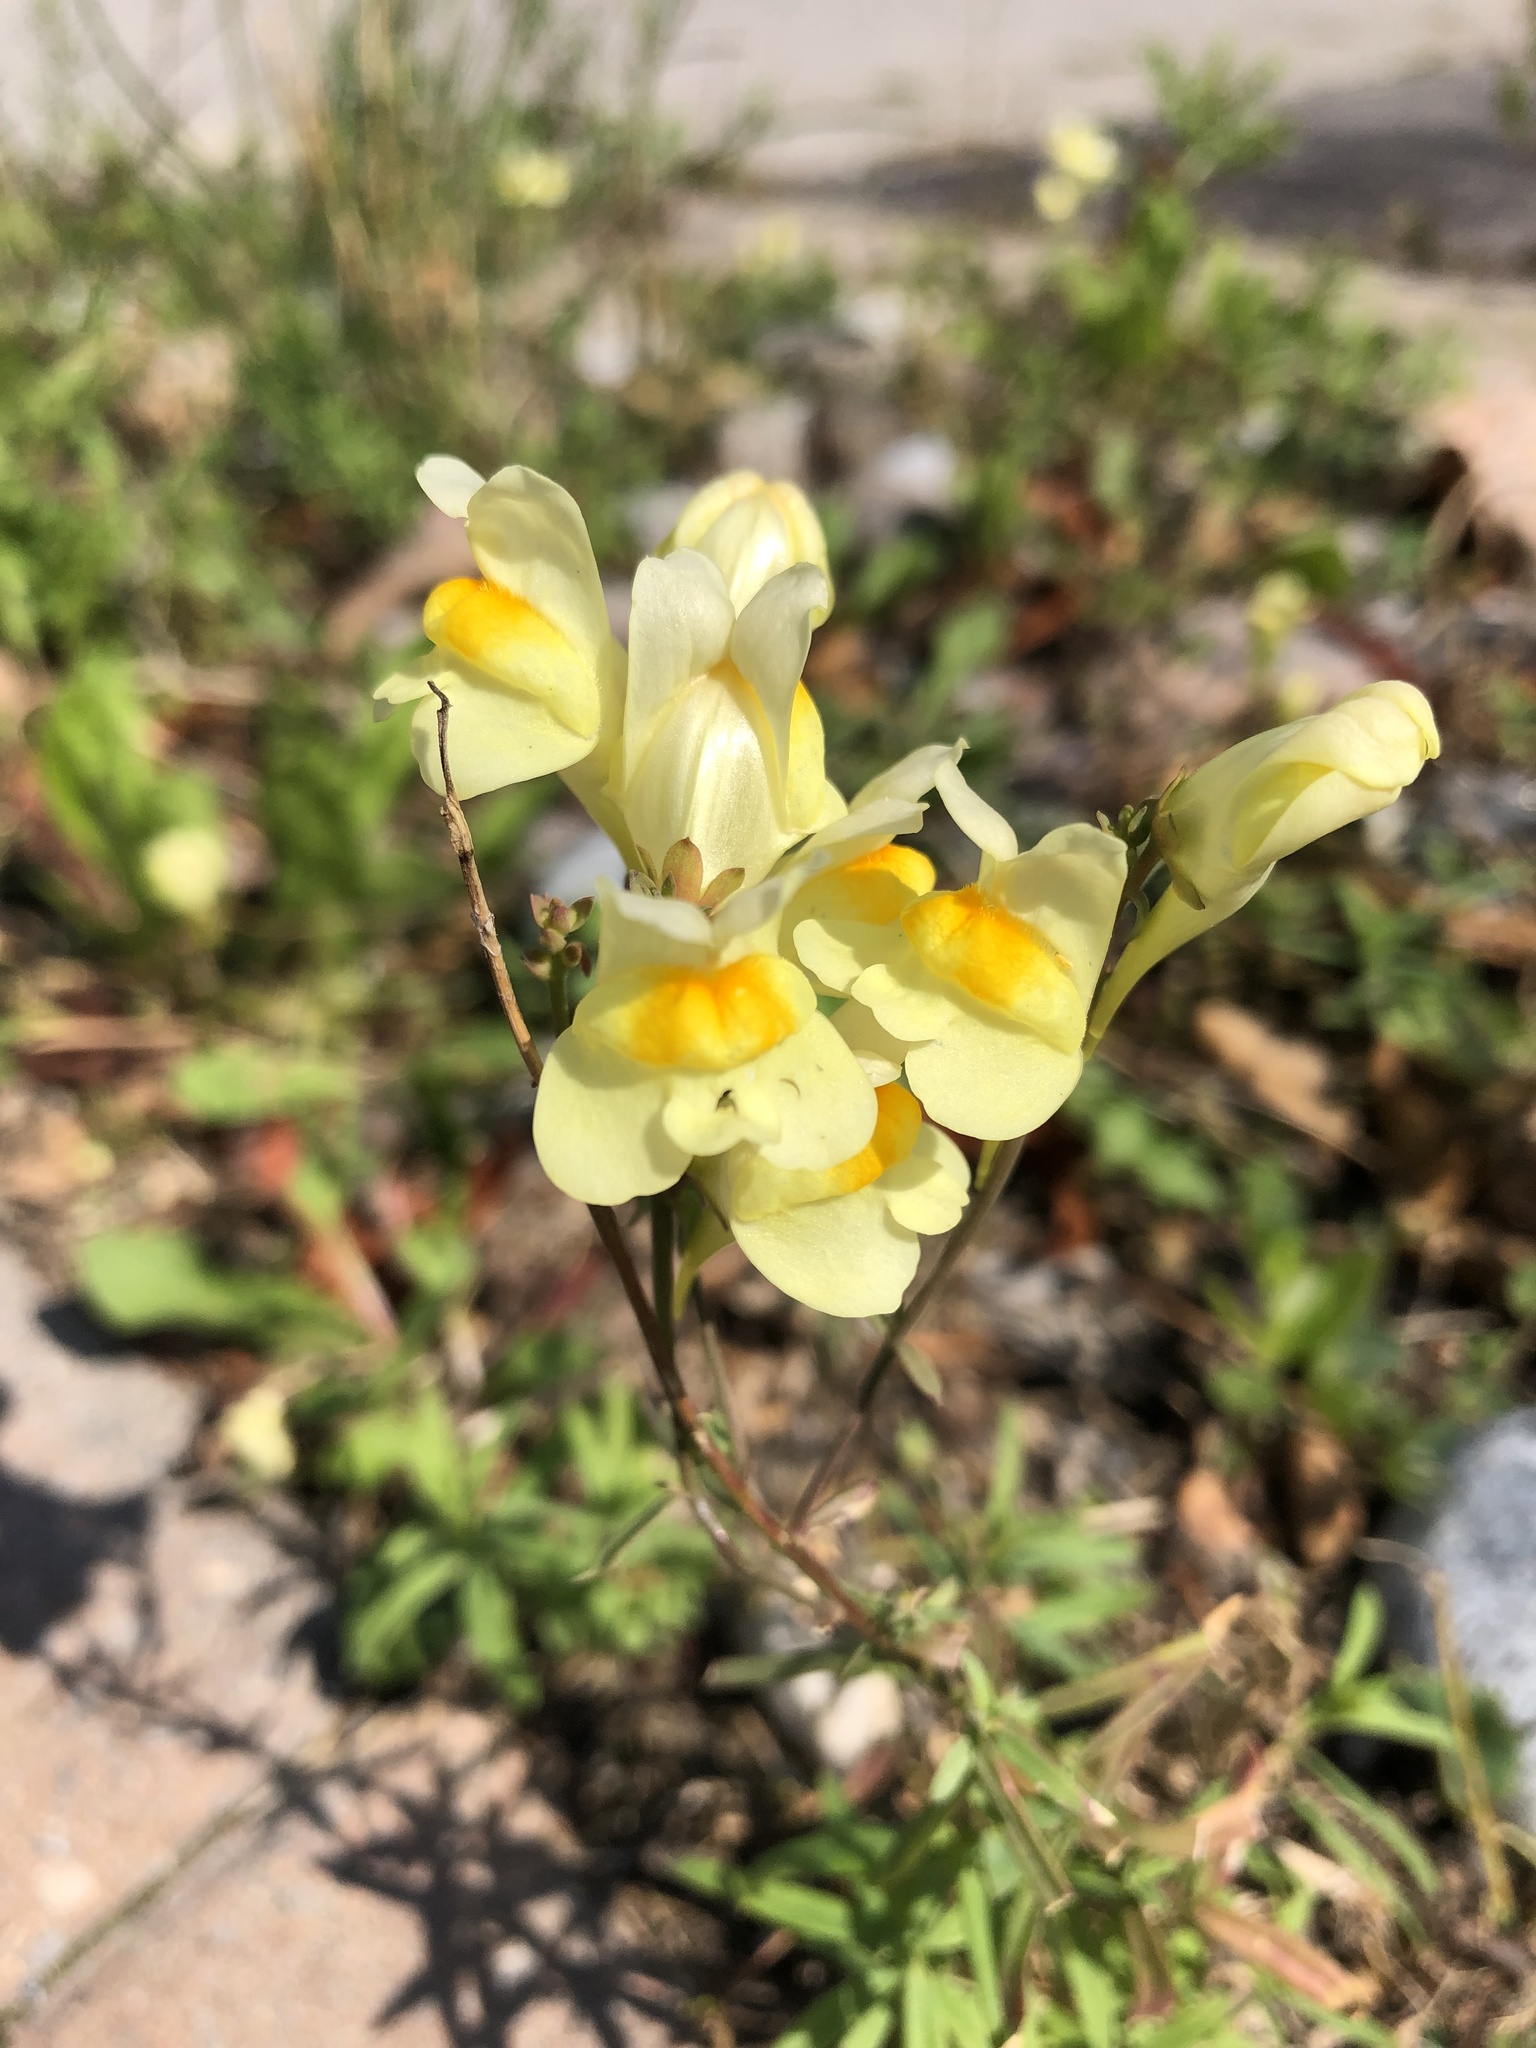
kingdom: Plantae
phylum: Tracheophyta
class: Magnoliopsida
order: Lamiales
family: Plantaginaceae
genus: Linaria
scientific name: Linaria vulgaris
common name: Butter and eggs
